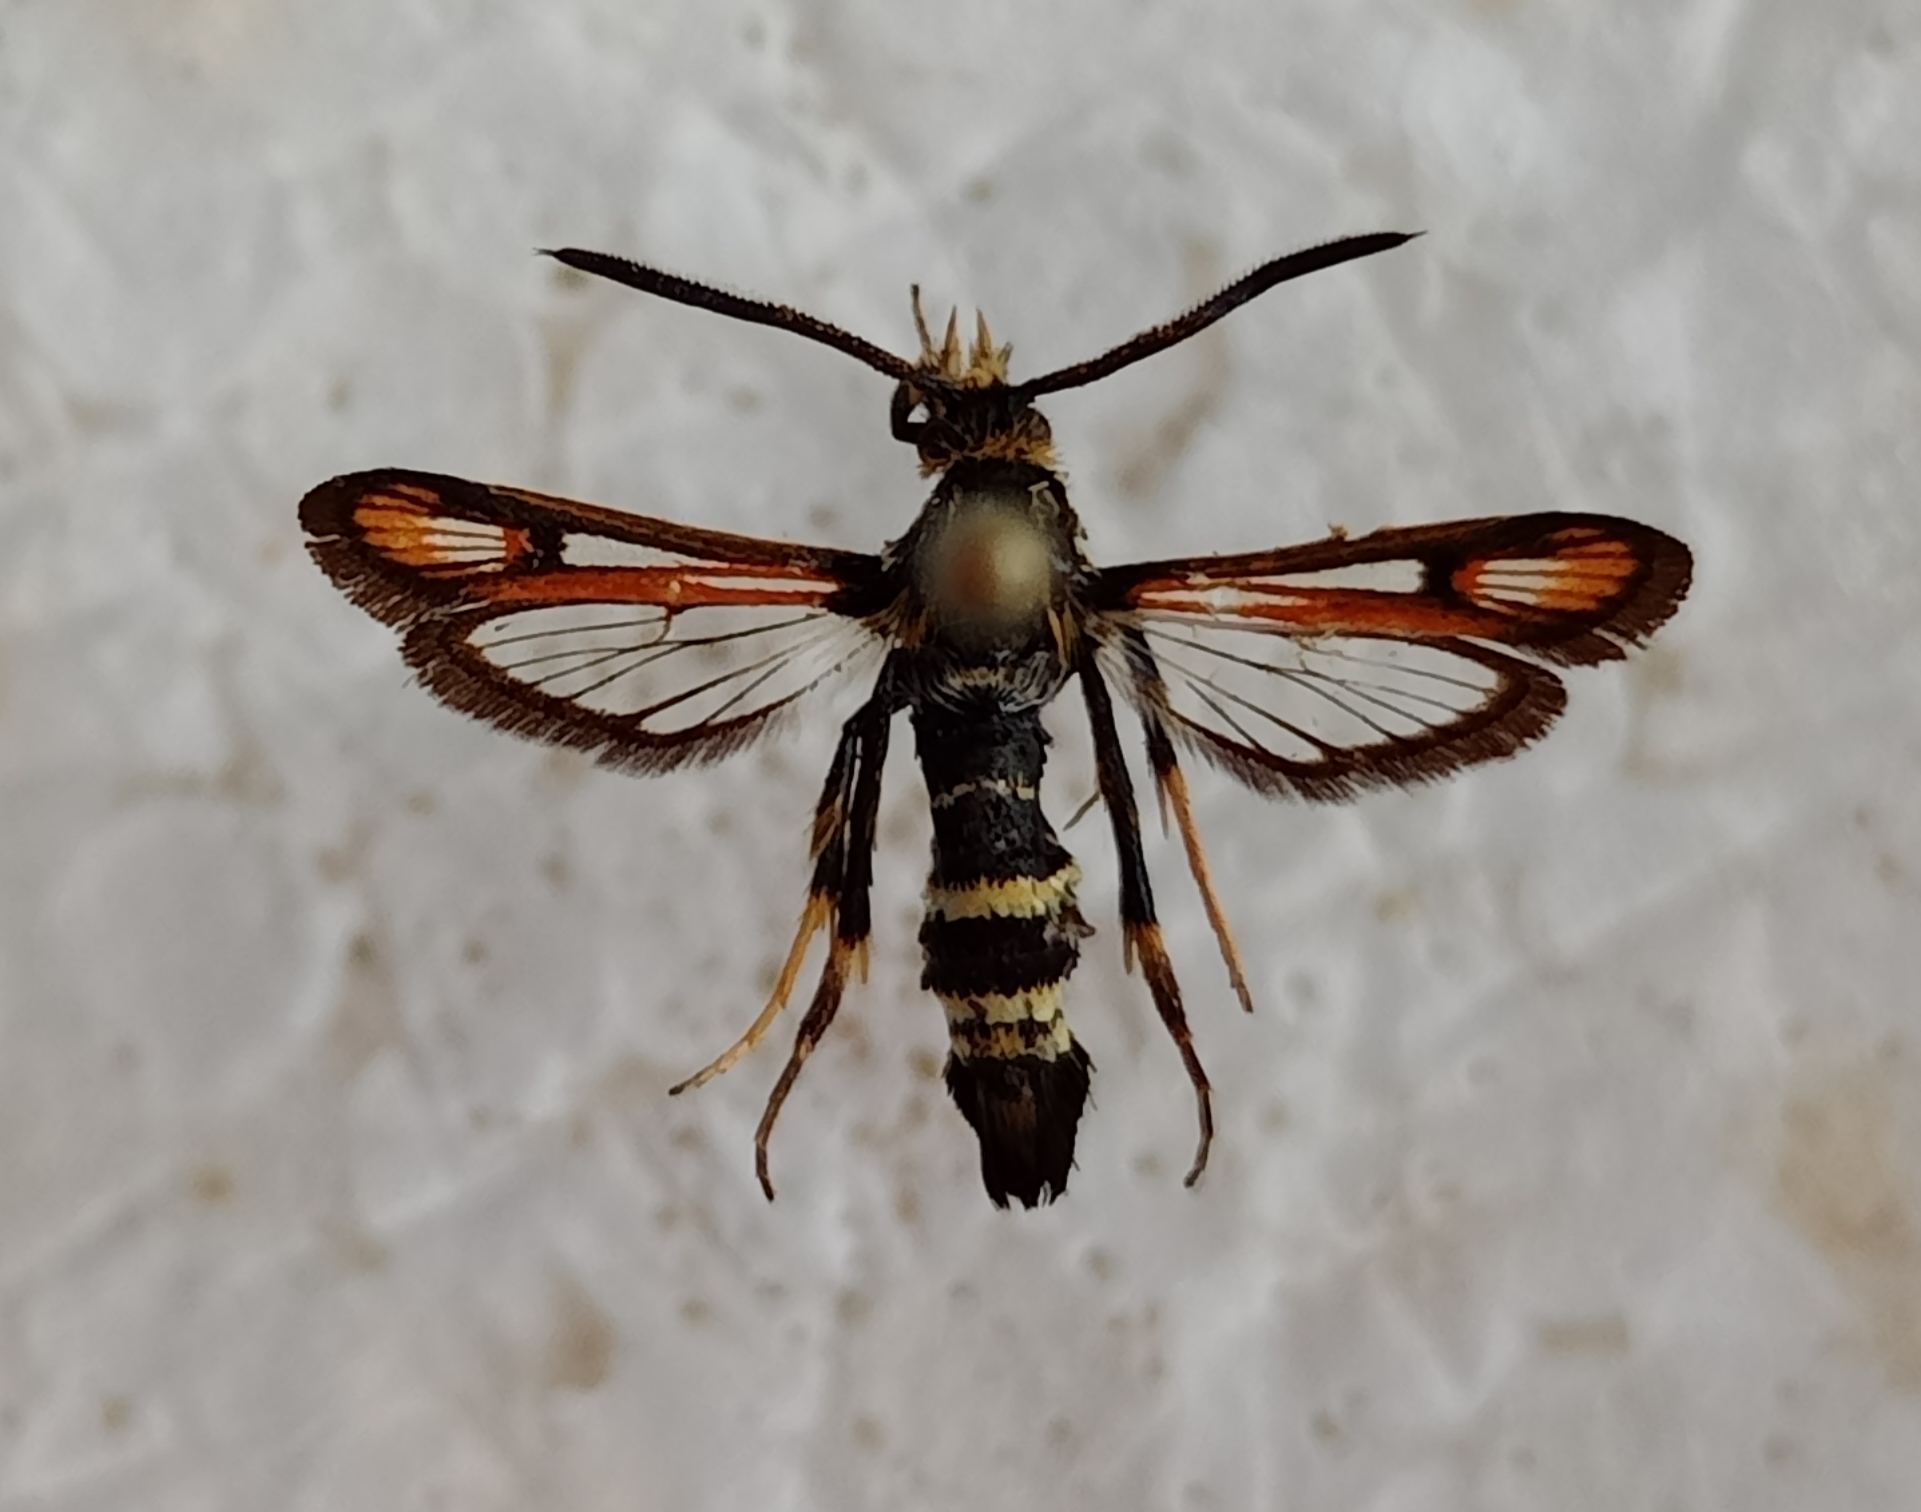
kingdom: Animalia
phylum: Arthropoda
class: Insecta
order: Lepidoptera
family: Sesiidae
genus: Bembecia
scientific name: Bembecia fokidensis
